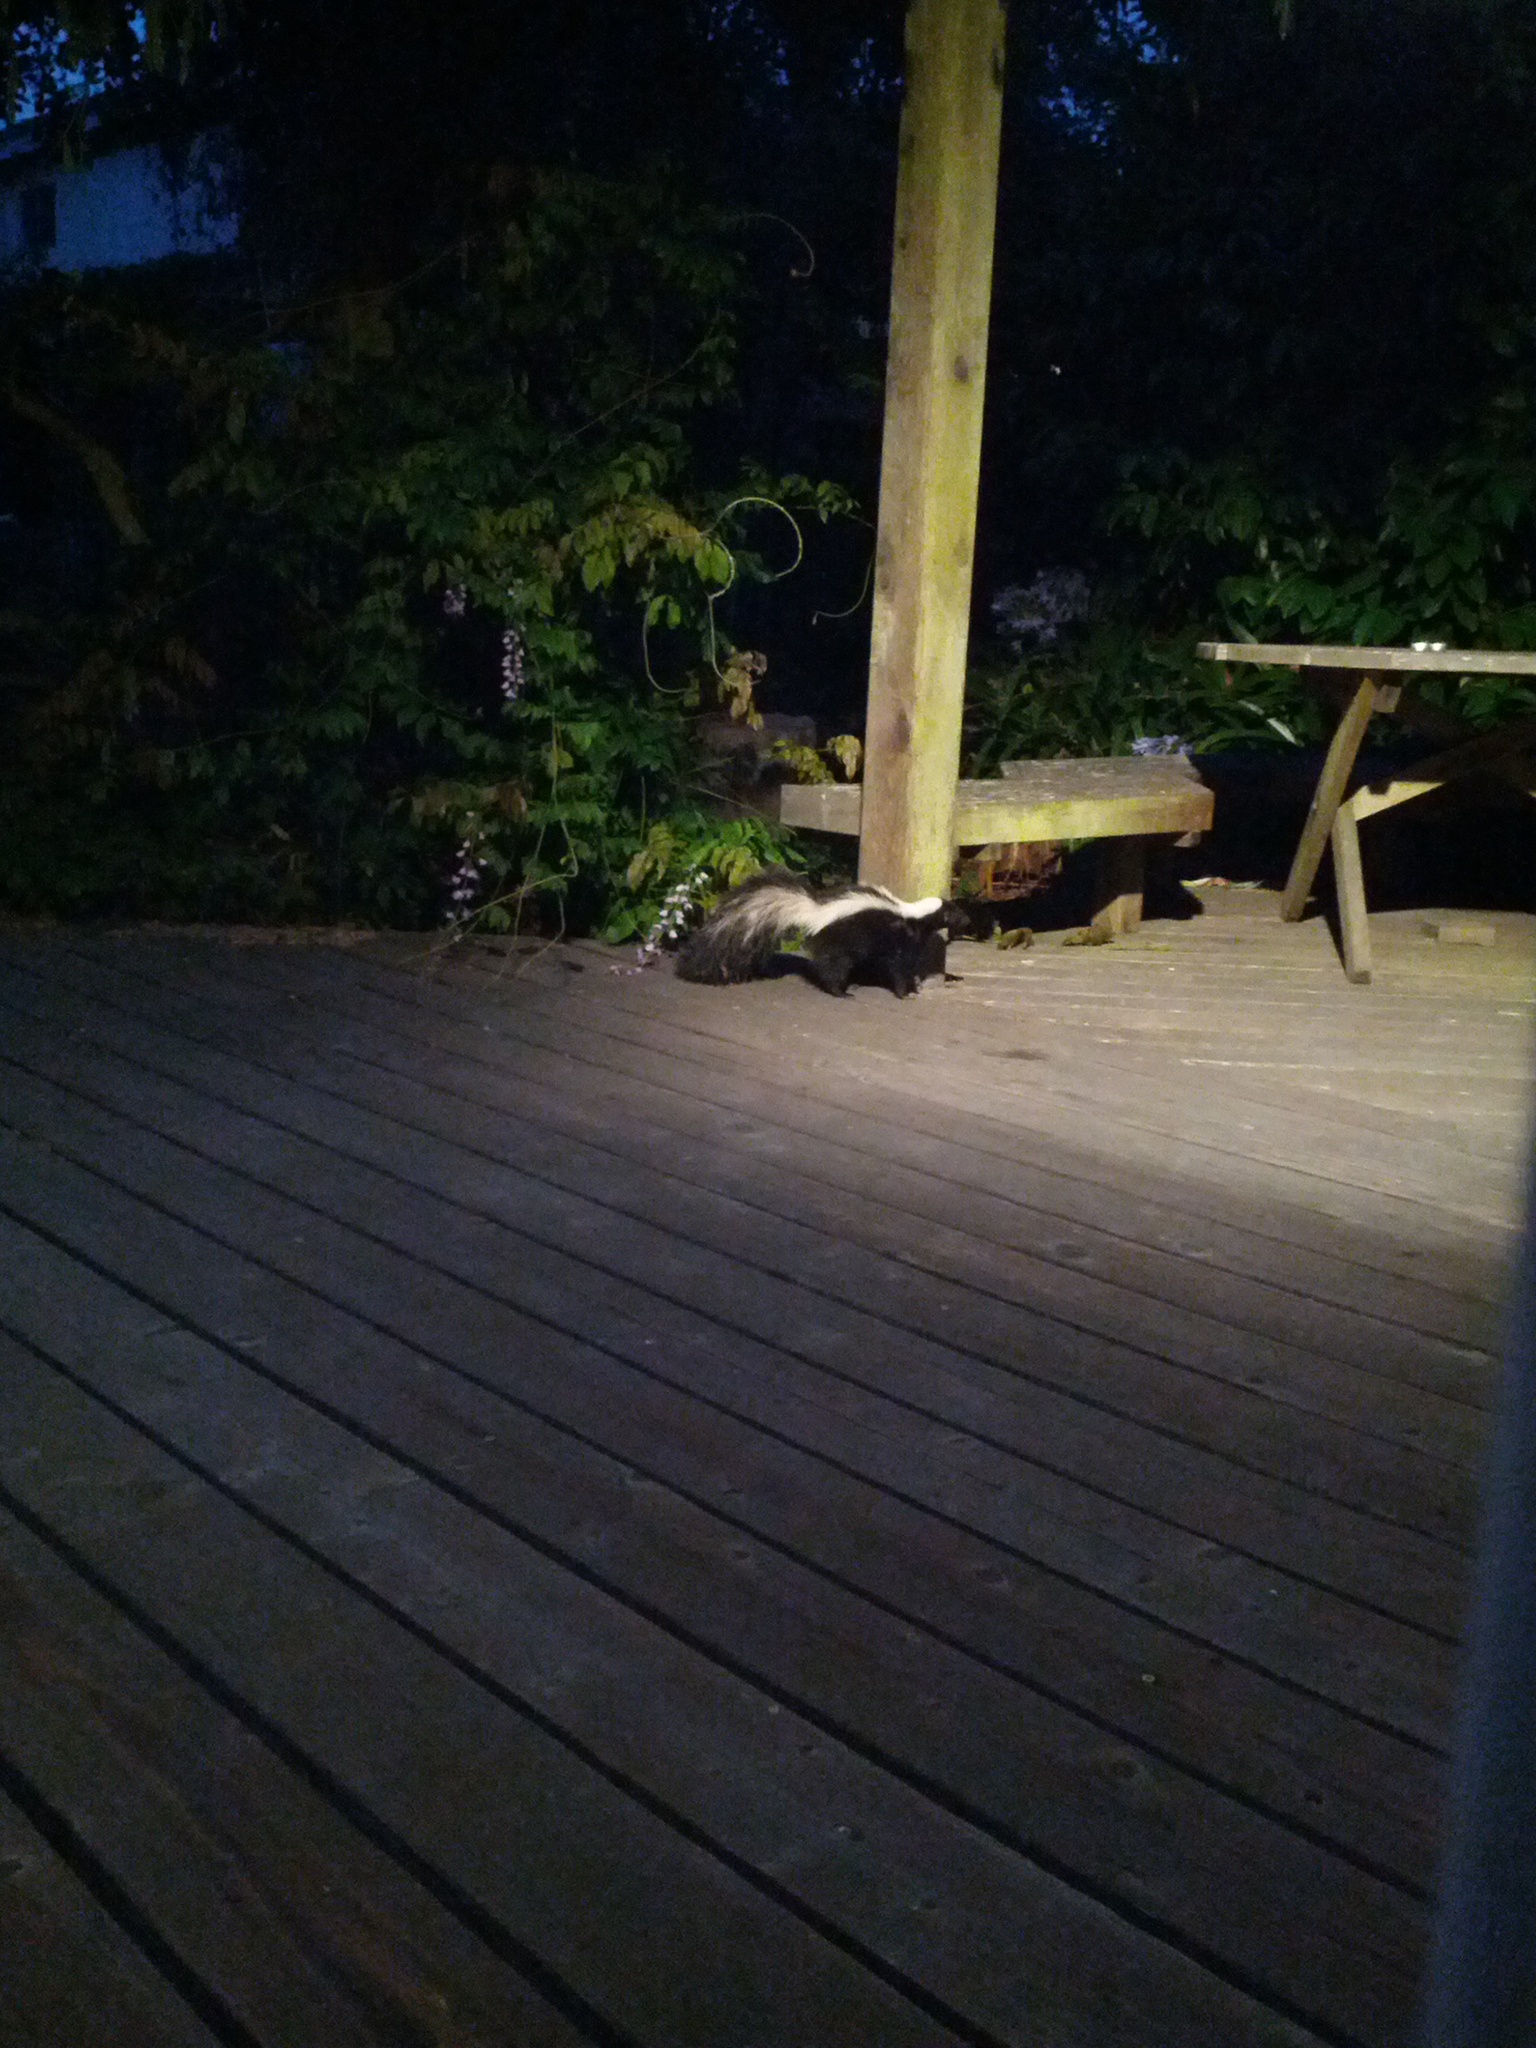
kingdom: Animalia
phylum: Chordata
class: Mammalia
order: Carnivora
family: Mephitidae
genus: Mephitis
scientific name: Mephitis mephitis
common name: Striped skunk
